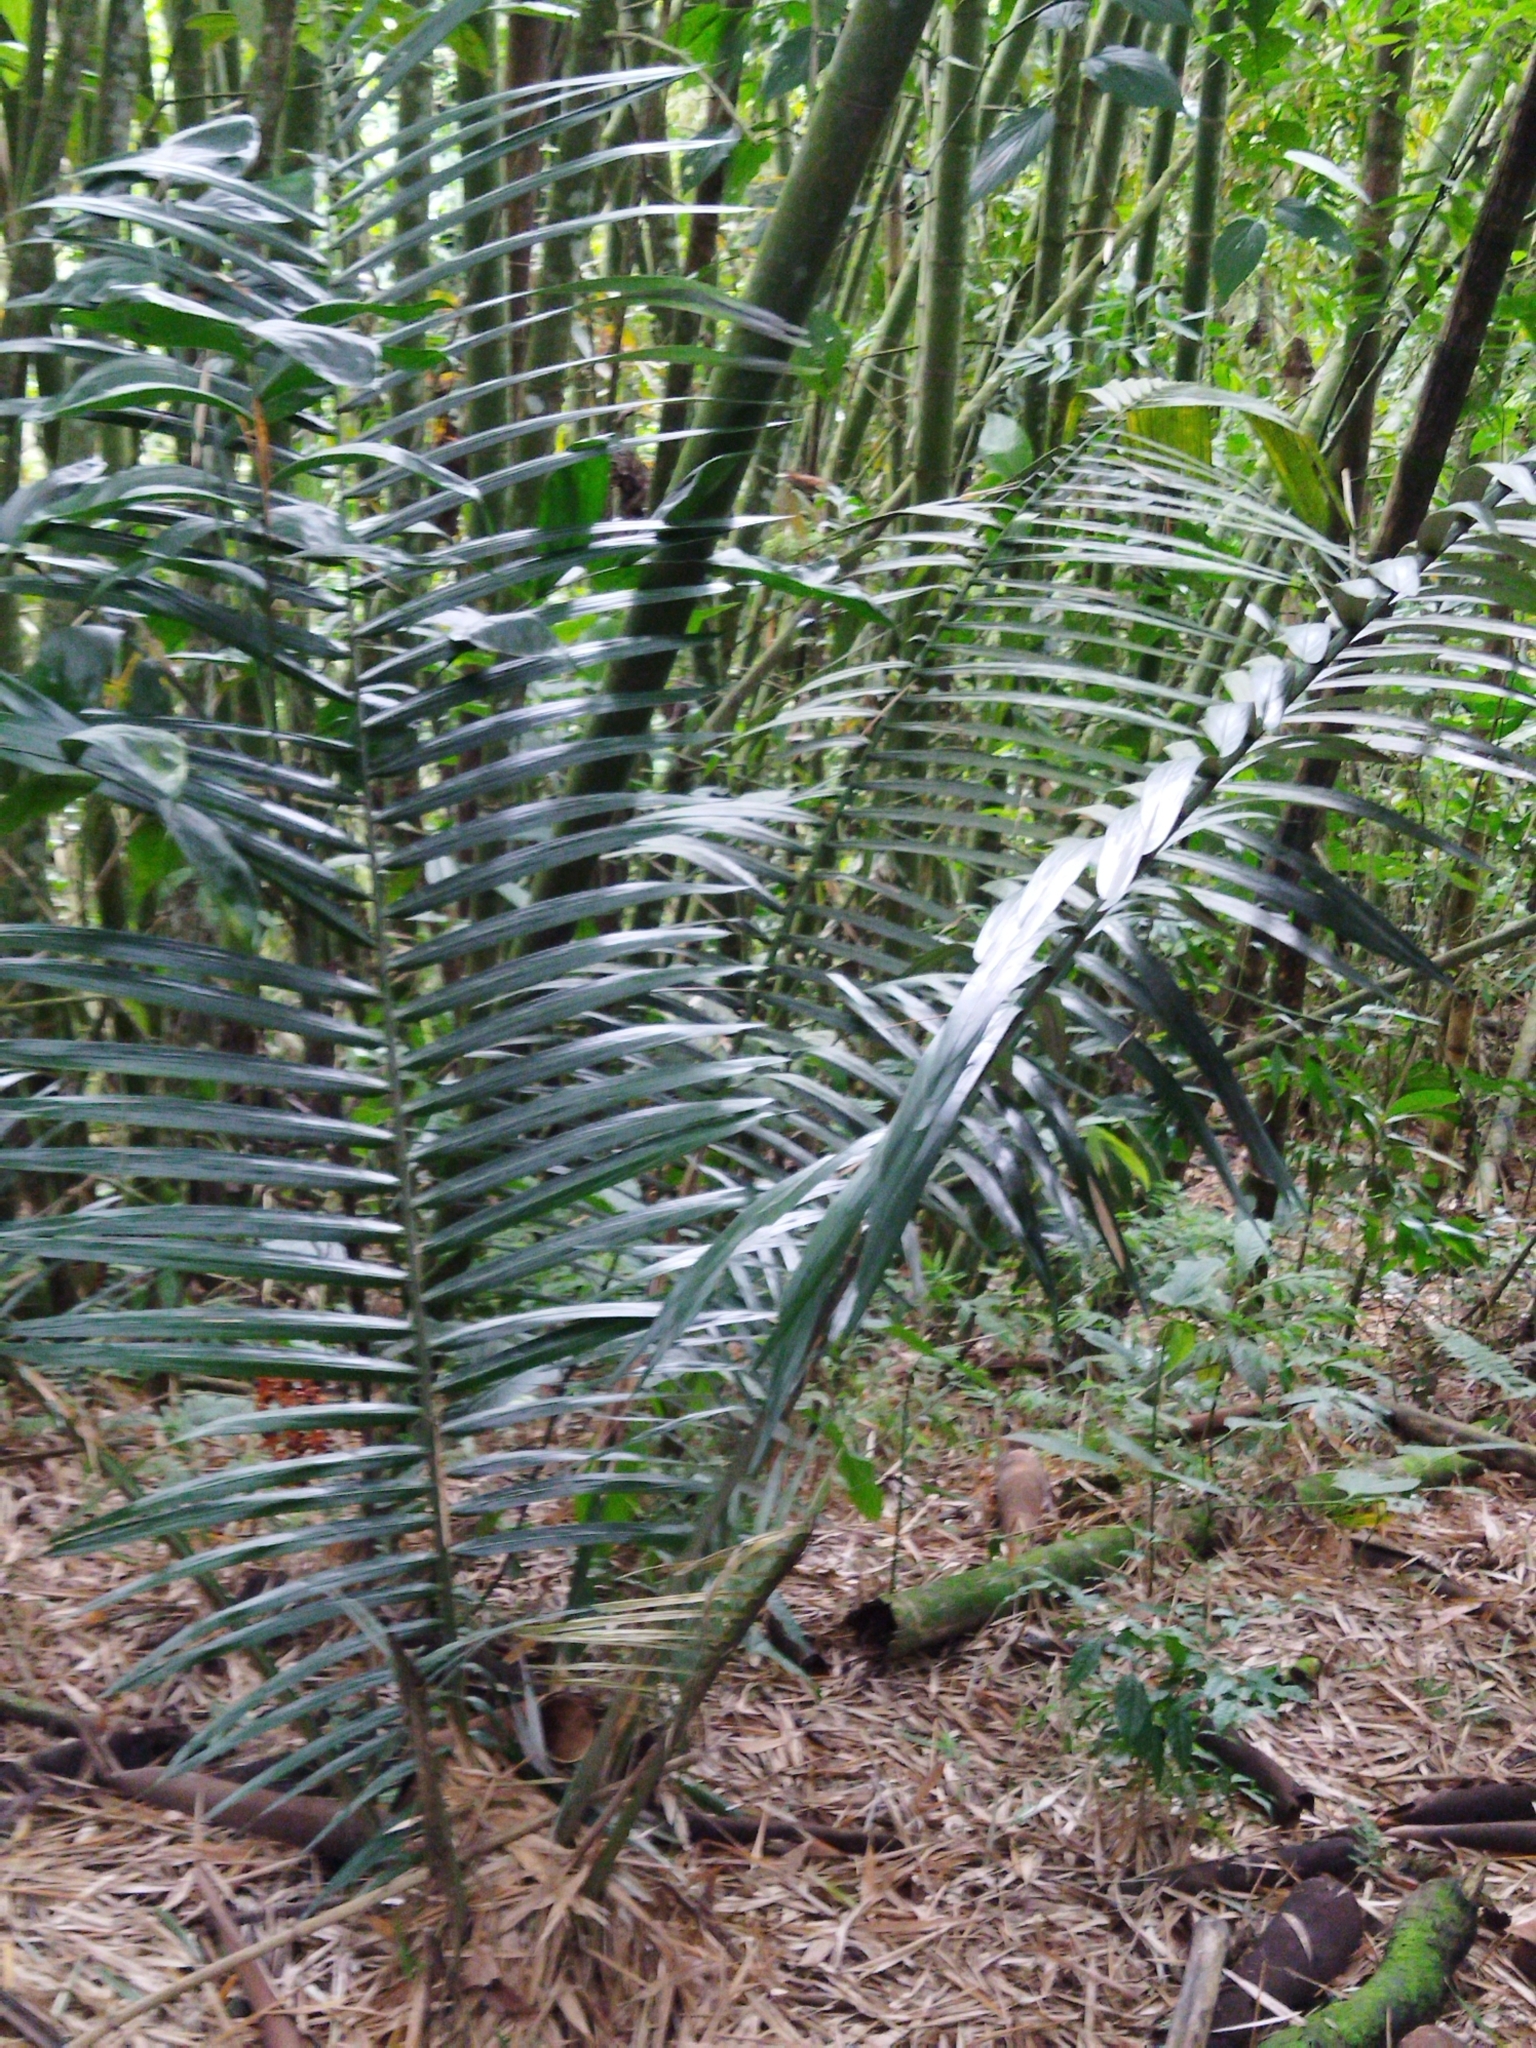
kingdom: Plantae
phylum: Tracheophyta
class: Liliopsida
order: Arecales
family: Arecaceae
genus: Ceroxylon
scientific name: Ceroxylon quindiuense
